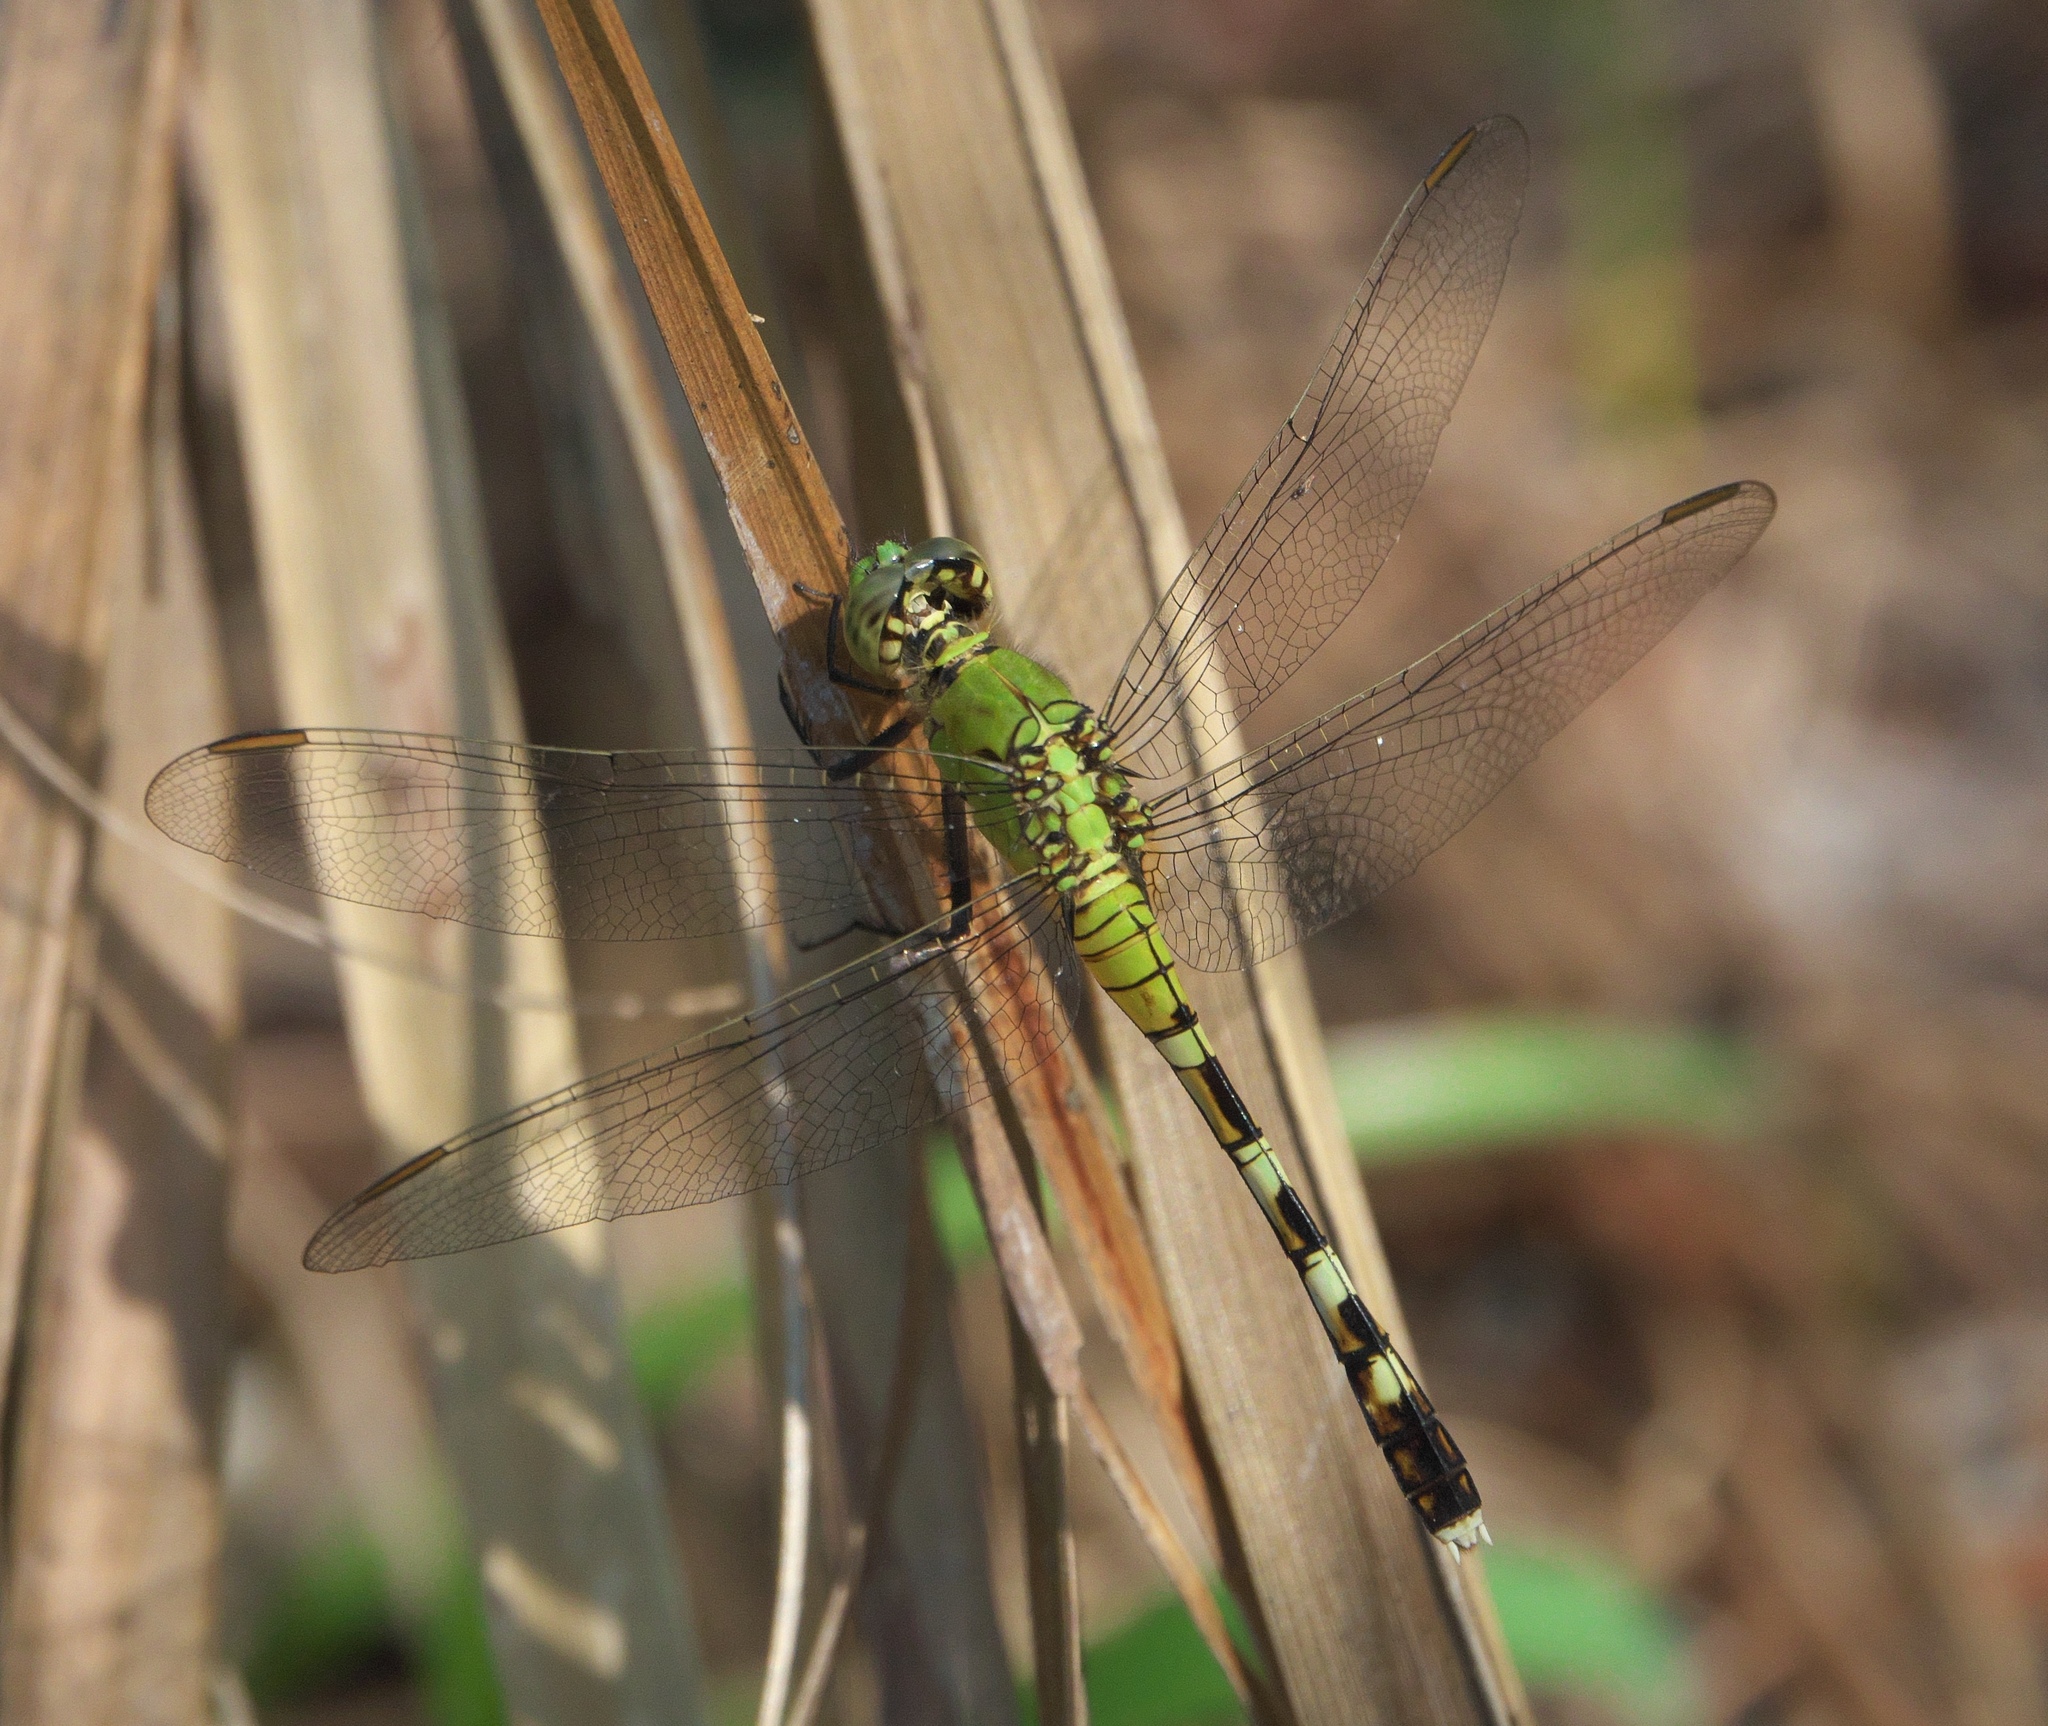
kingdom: Animalia
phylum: Arthropoda
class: Insecta
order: Odonata
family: Libellulidae
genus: Erythemis
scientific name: Erythemis simplicicollis
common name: Eastern pondhawk
